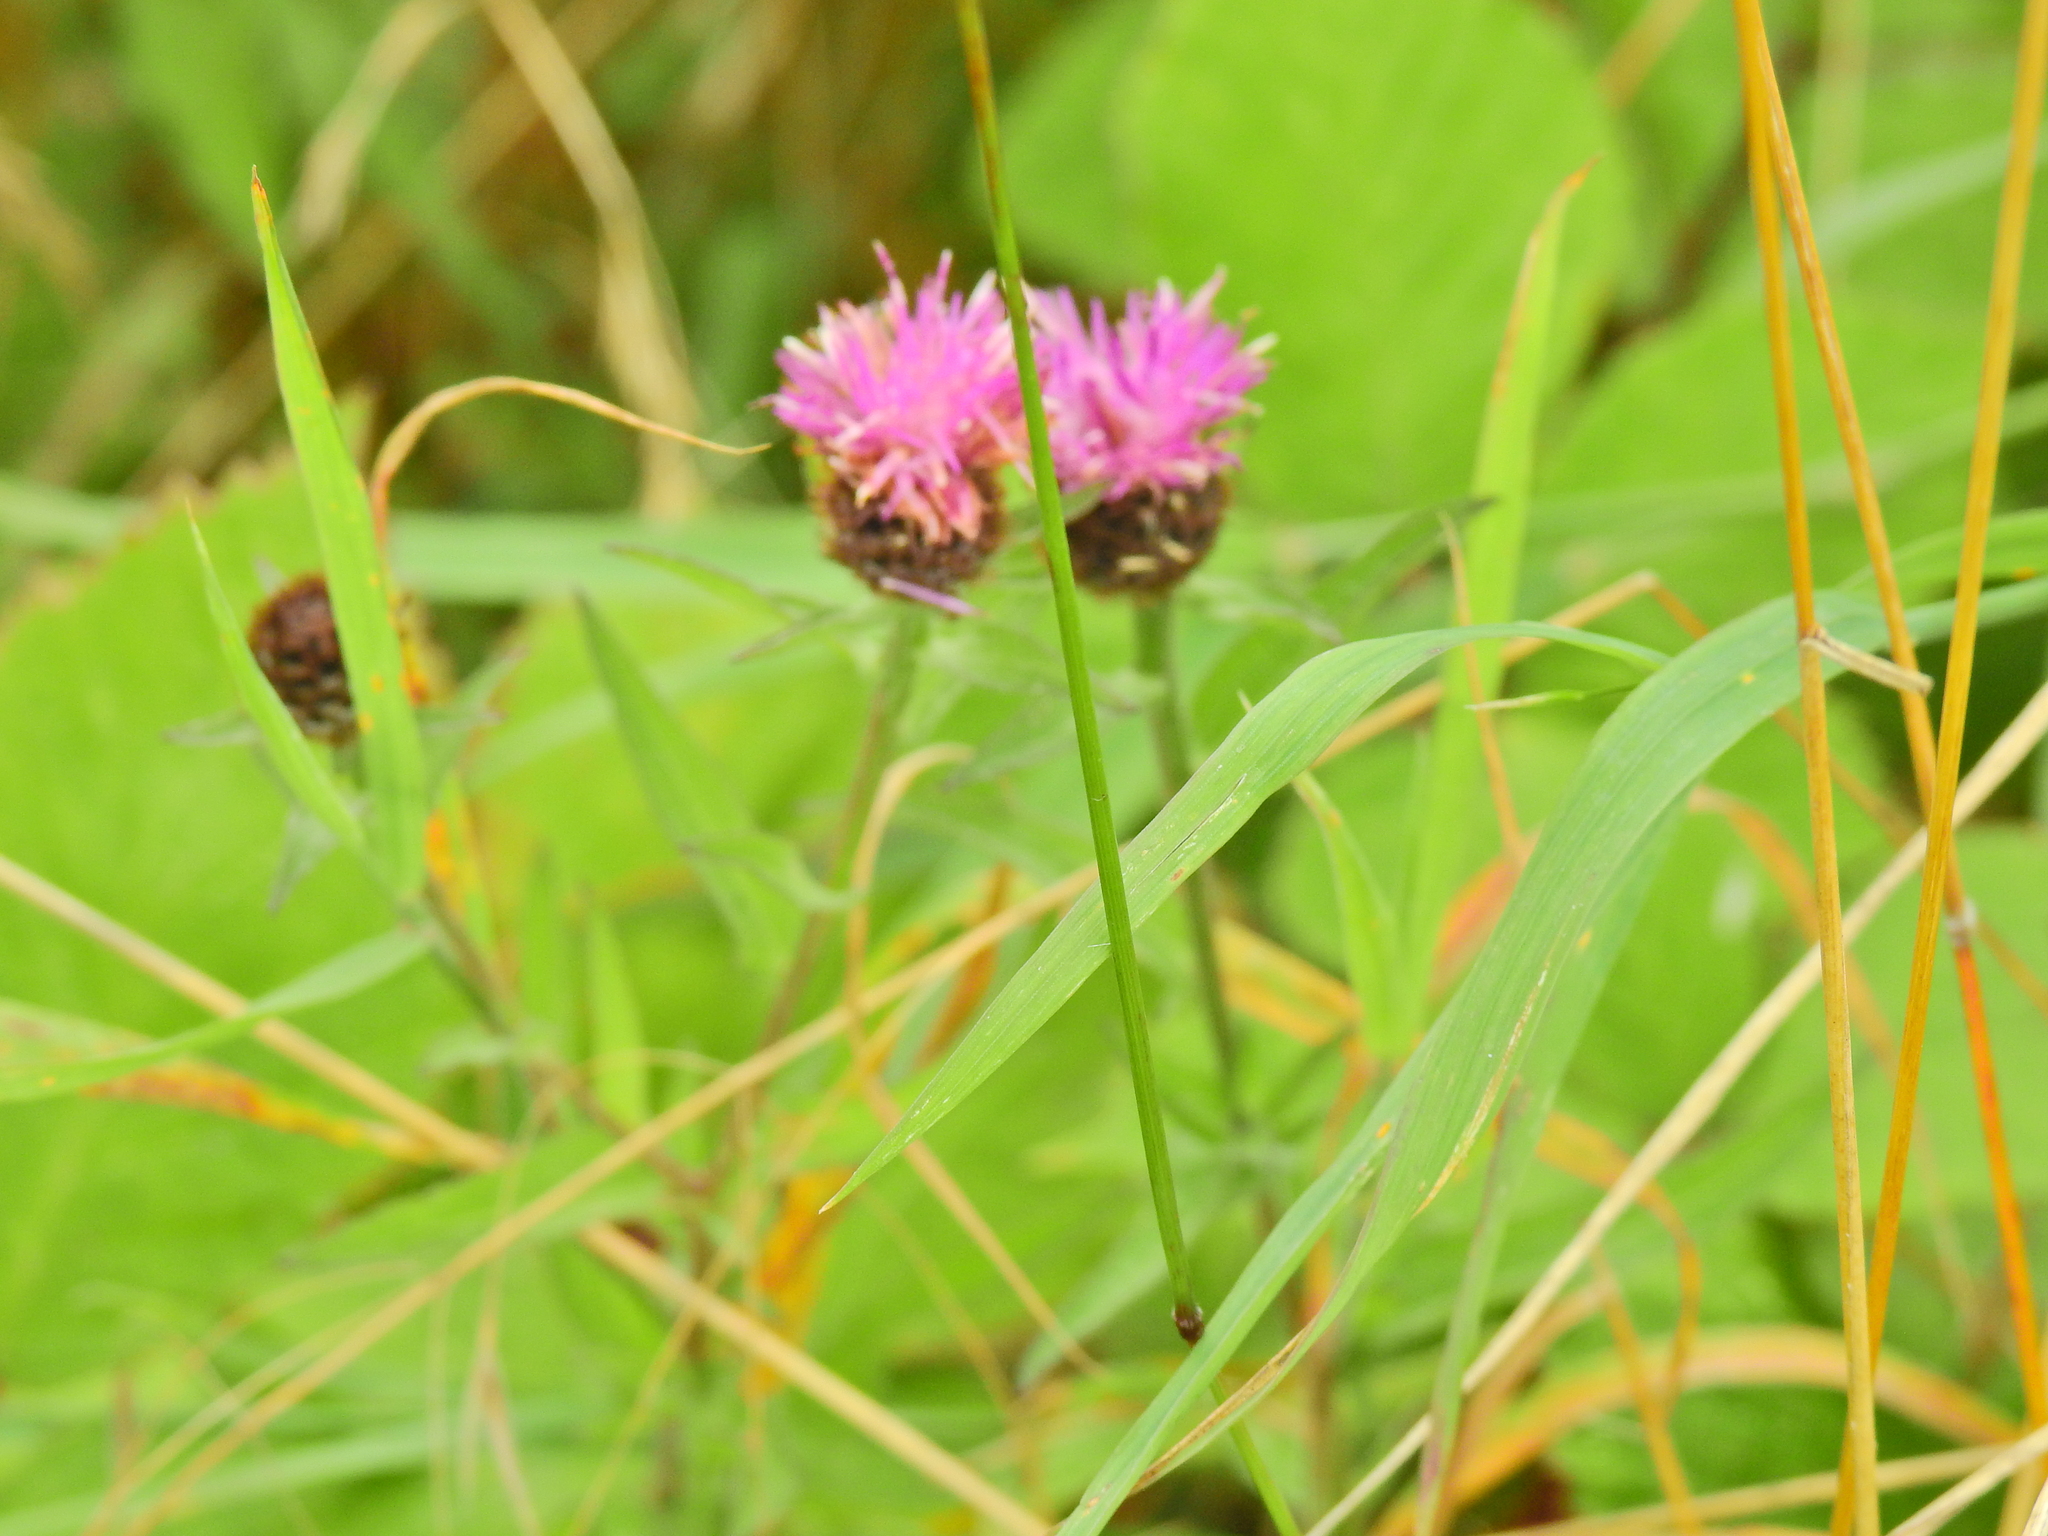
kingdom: Plantae
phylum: Tracheophyta
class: Magnoliopsida
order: Asterales
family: Asteraceae
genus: Centaurea
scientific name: Centaurea nigra
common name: Lesser knapweed
